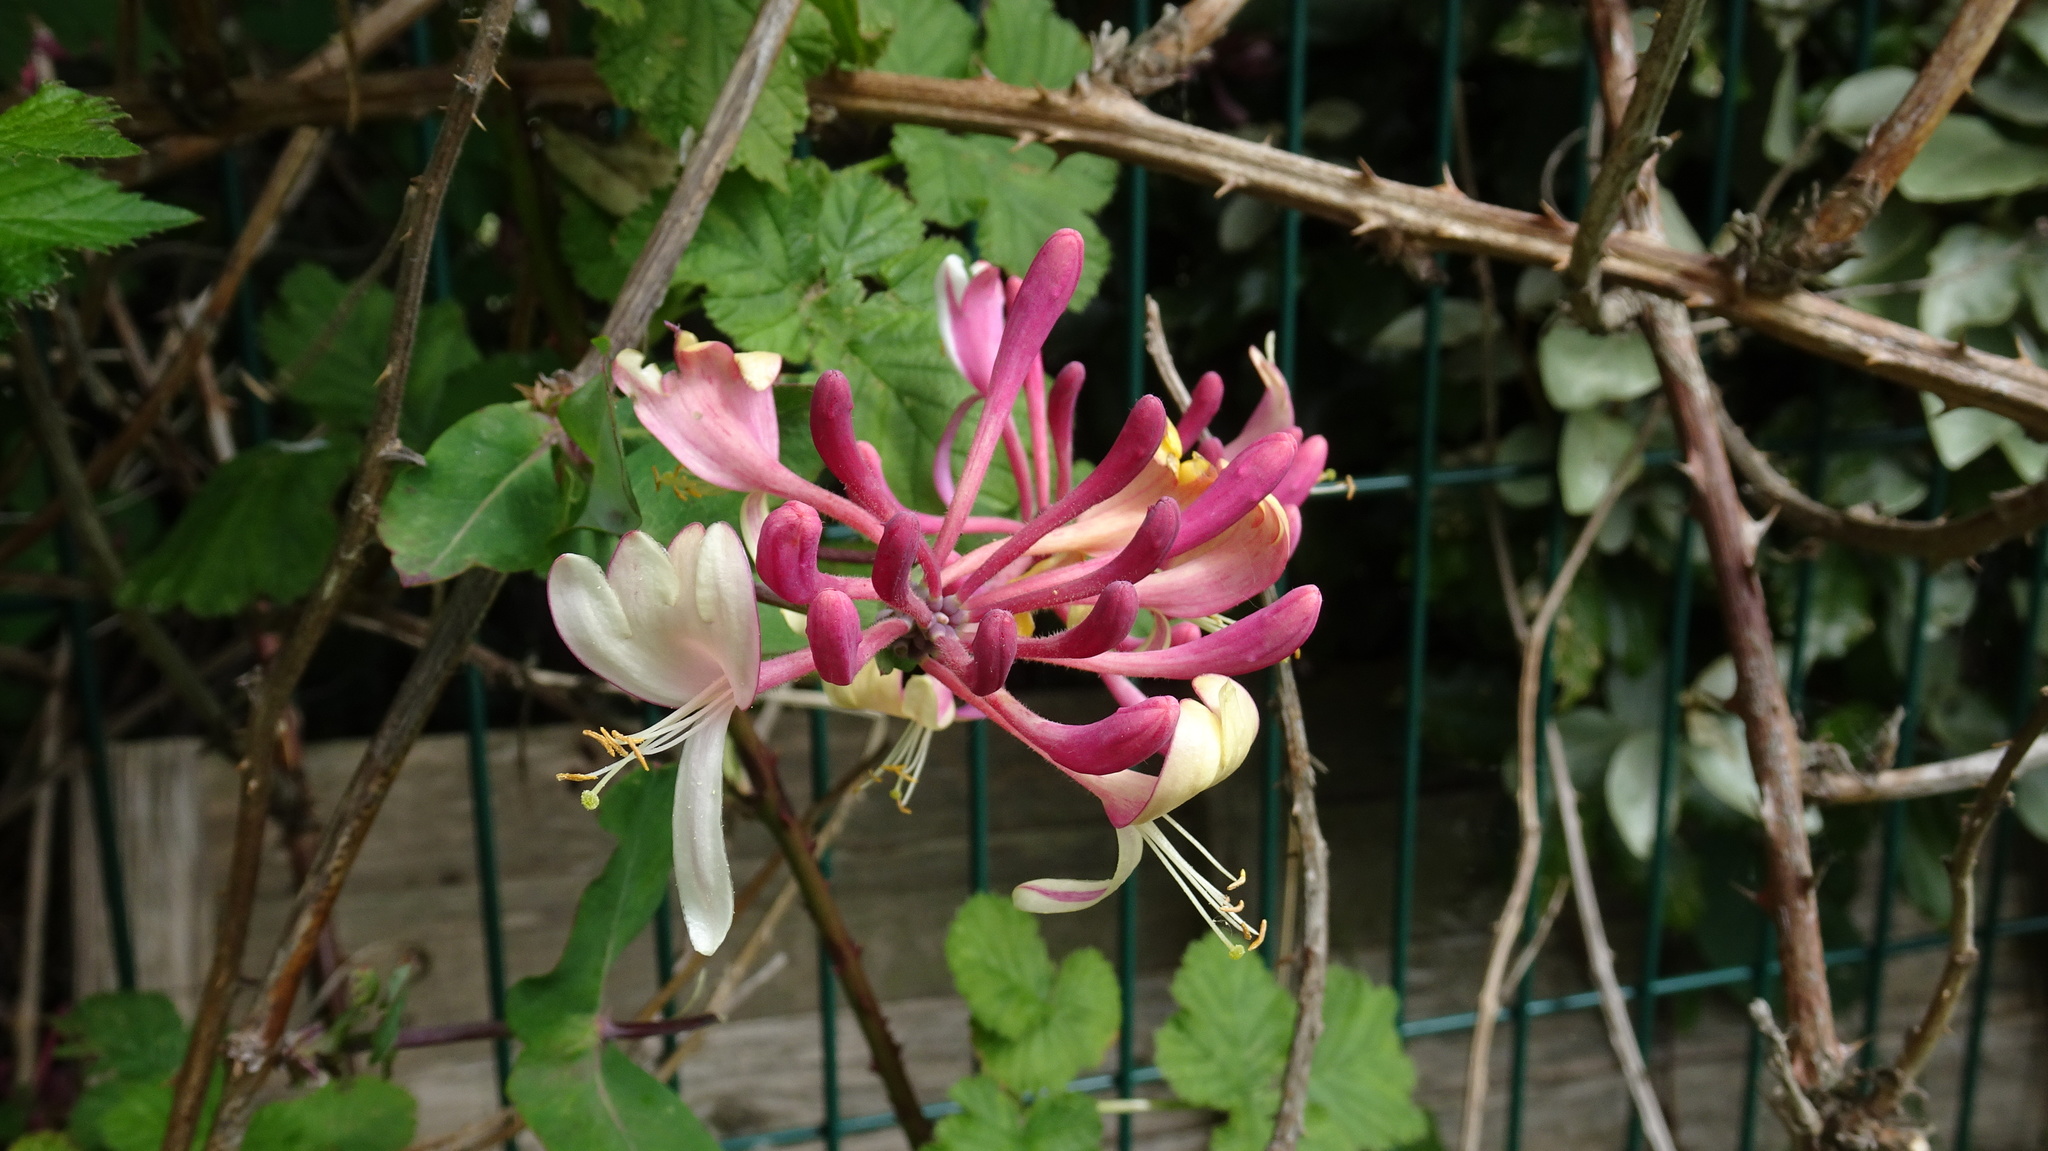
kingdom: Plantae
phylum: Tracheophyta
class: Magnoliopsida
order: Dipsacales
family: Caprifoliaceae
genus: Lonicera
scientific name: Lonicera periclymenum
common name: European honeysuckle
